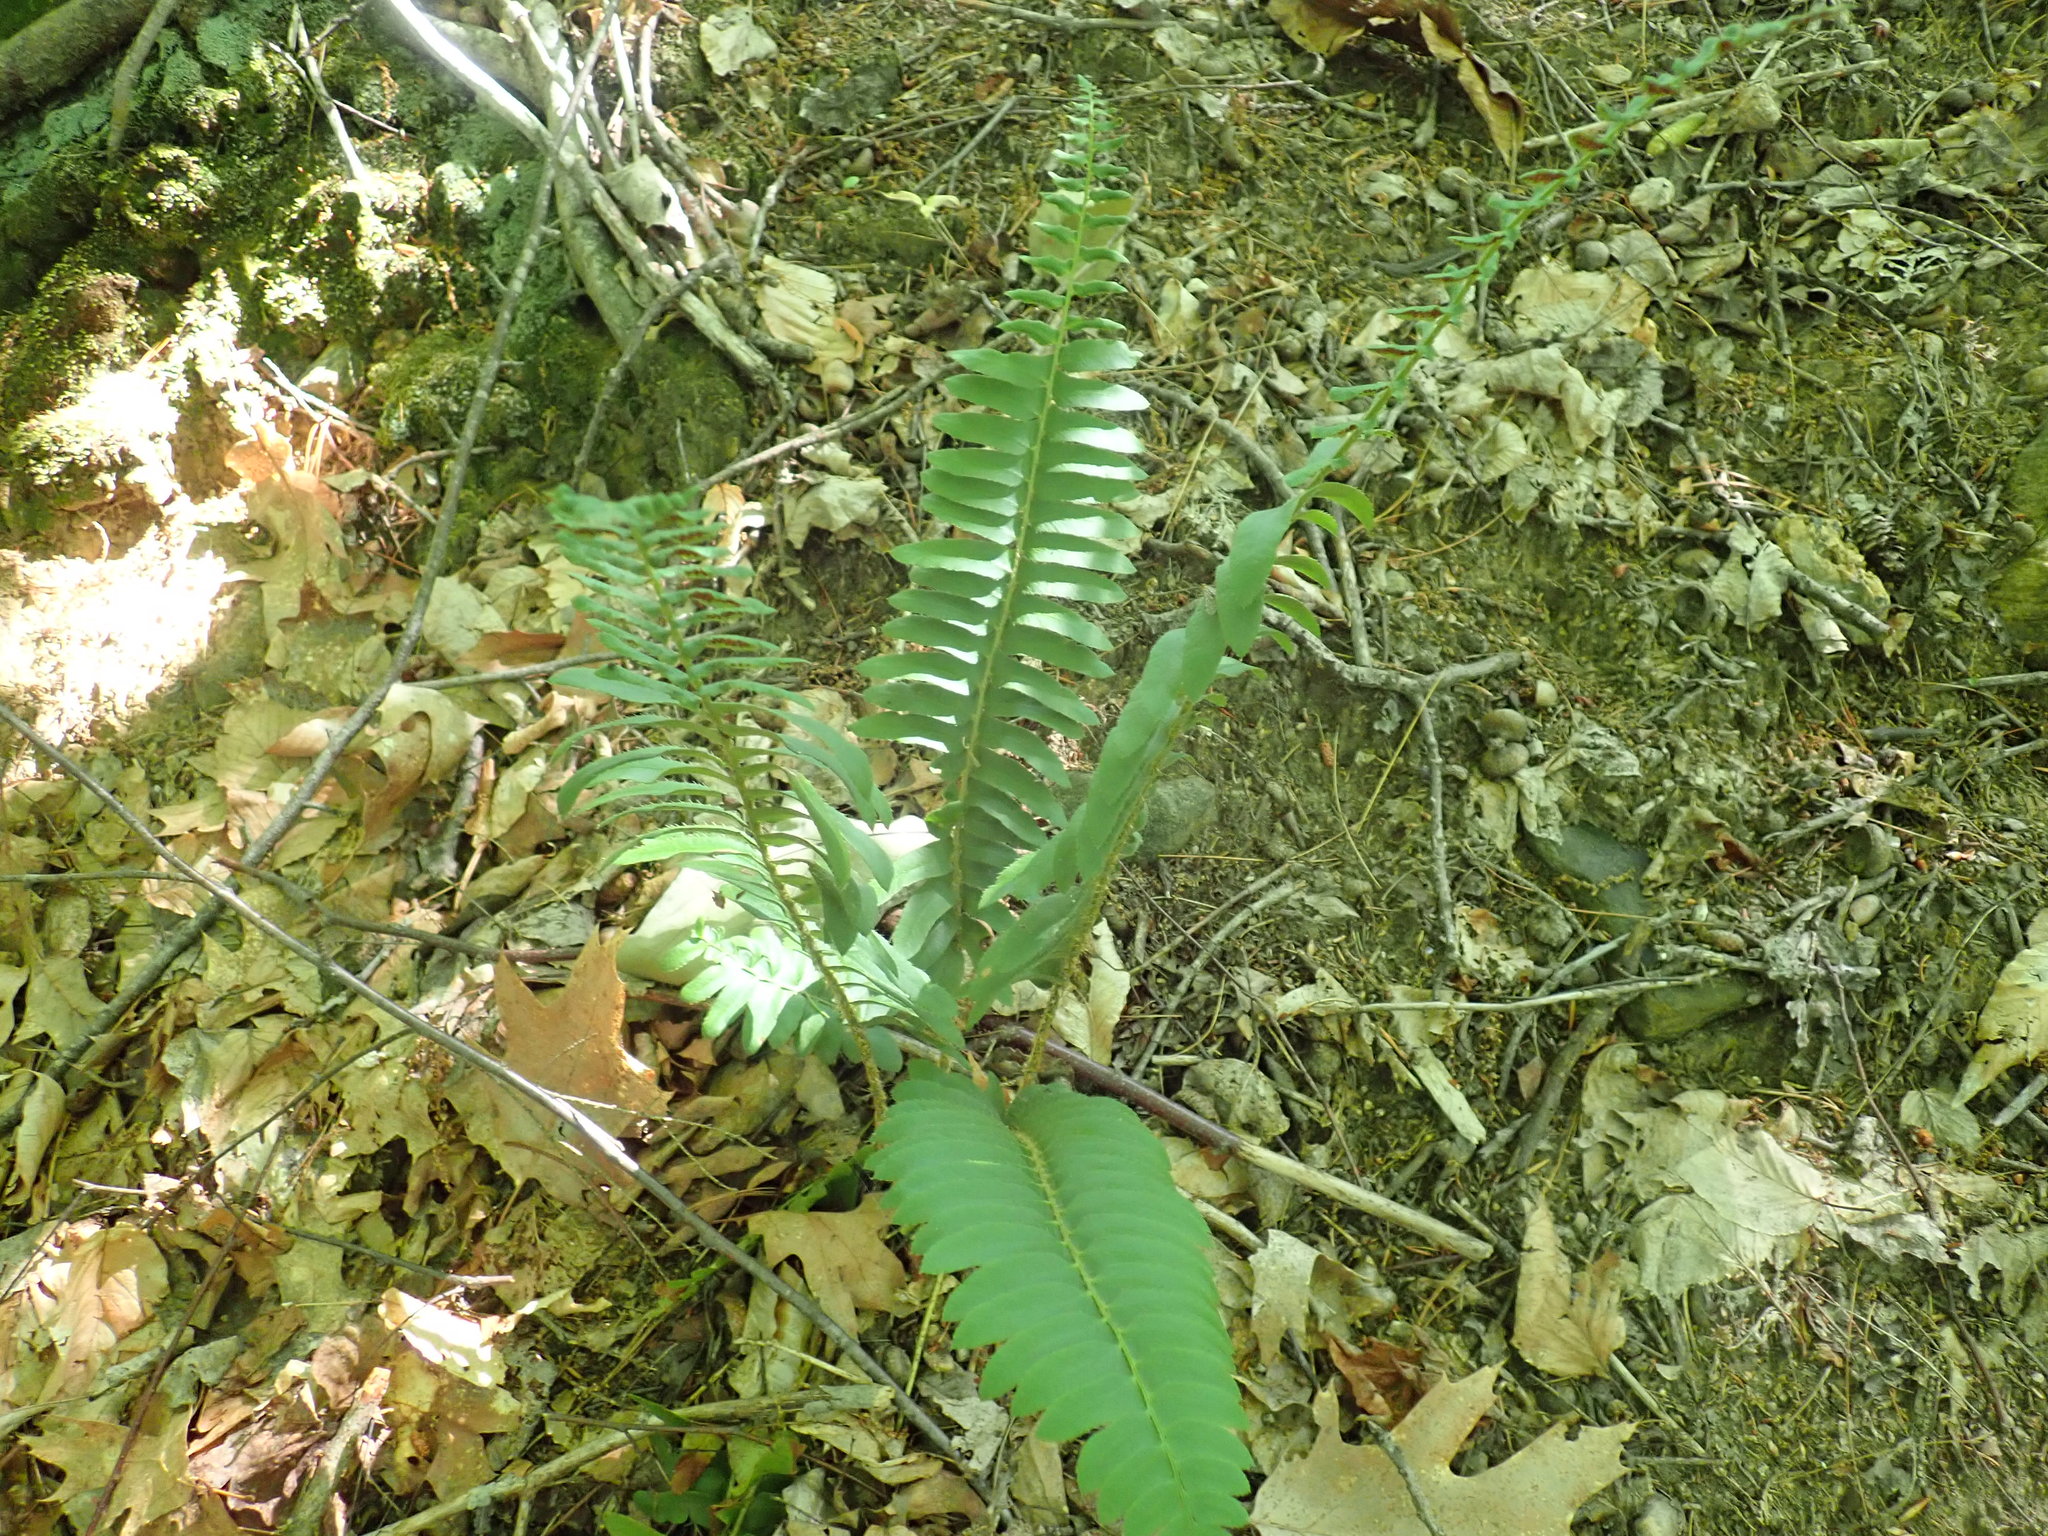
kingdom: Plantae
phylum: Tracheophyta
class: Polypodiopsida
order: Polypodiales
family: Dryopteridaceae
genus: Polystichum
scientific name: Polystichum acrostichoides
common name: Christmas fern
